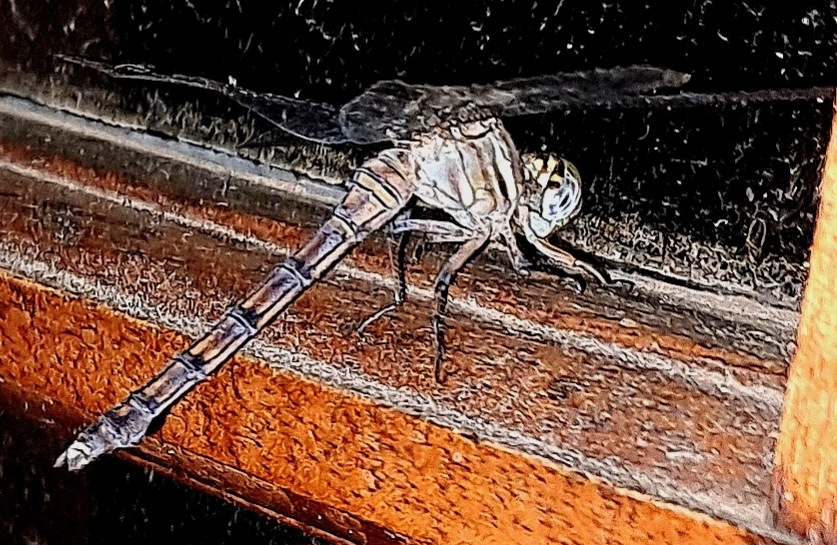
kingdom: Animalia
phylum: Arthropoda
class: Insecta
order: Odonata
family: Libellulidae
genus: Orthetrum
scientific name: Orthetrum julia
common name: Julia skimmer
